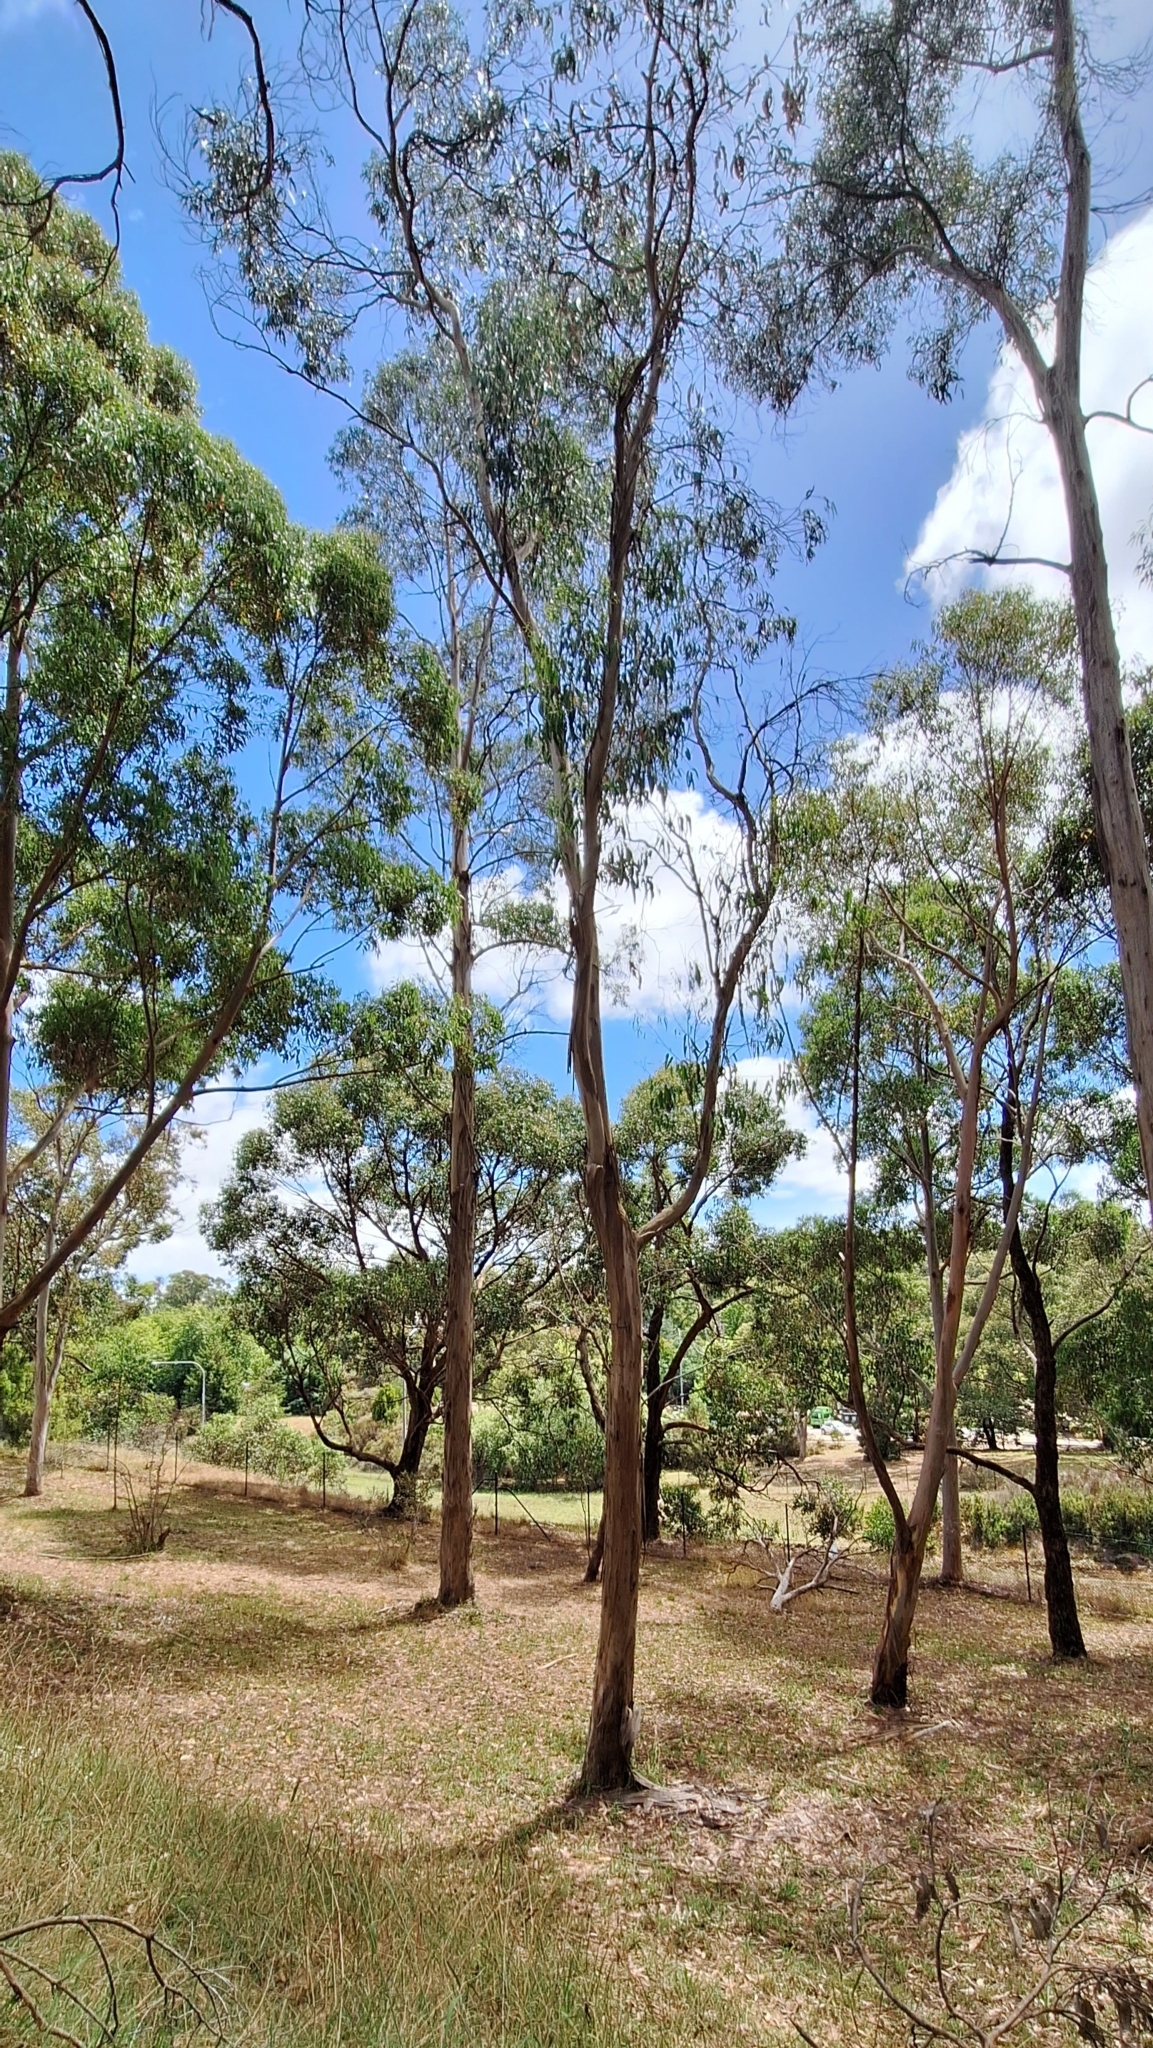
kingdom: Plantae
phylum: Tracheophyta
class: Magnoliopsida
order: Myrtales
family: Myrtaceae
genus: Eucalyptus
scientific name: Eucalyptus globulus
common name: Southern blue-gum
